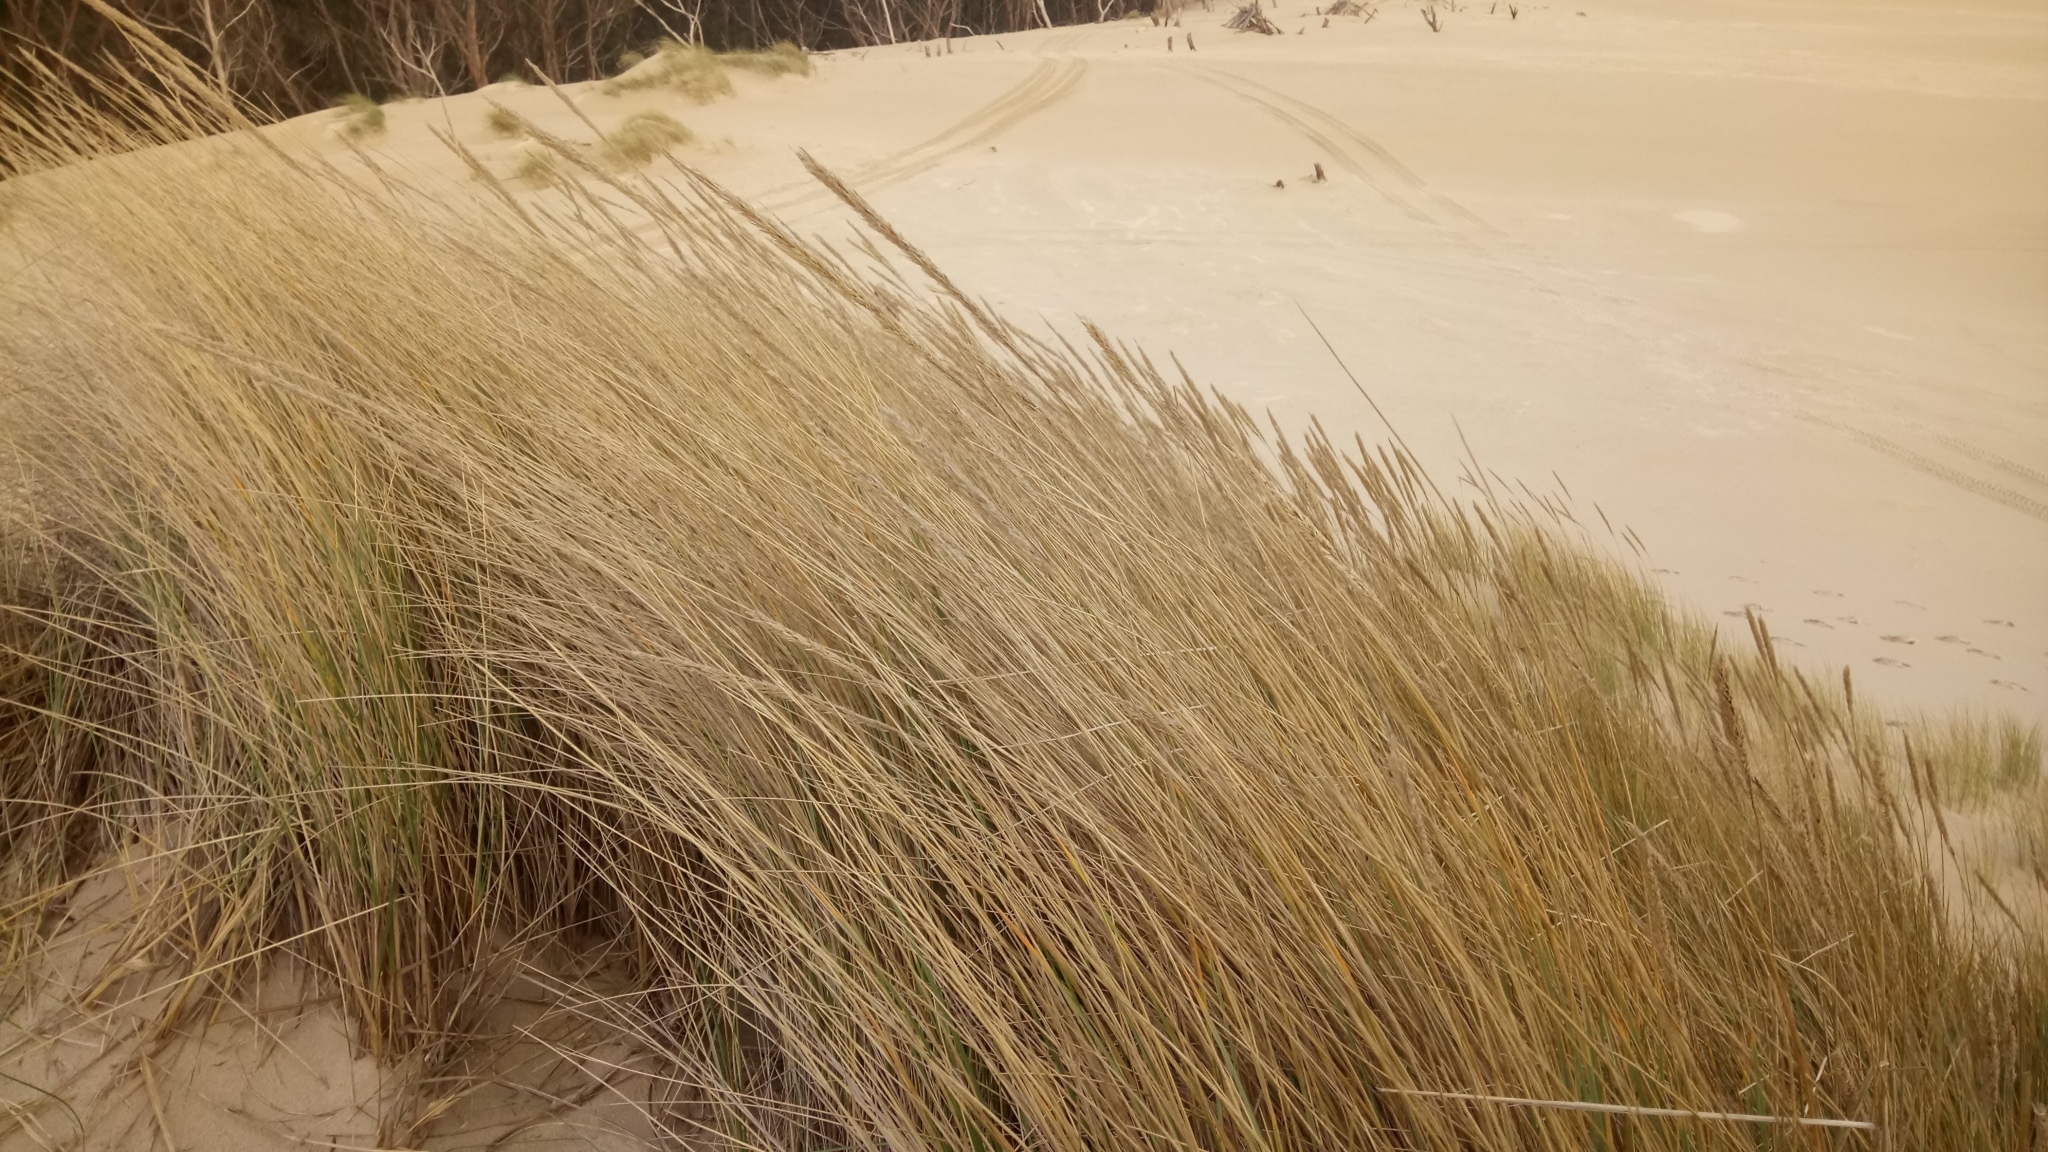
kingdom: Plantae
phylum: Tracheophyta
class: Liliopsida
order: Poales
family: Poaceae
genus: Calamagrostis
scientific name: Calamagrostis arenaria
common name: European beachgrass
